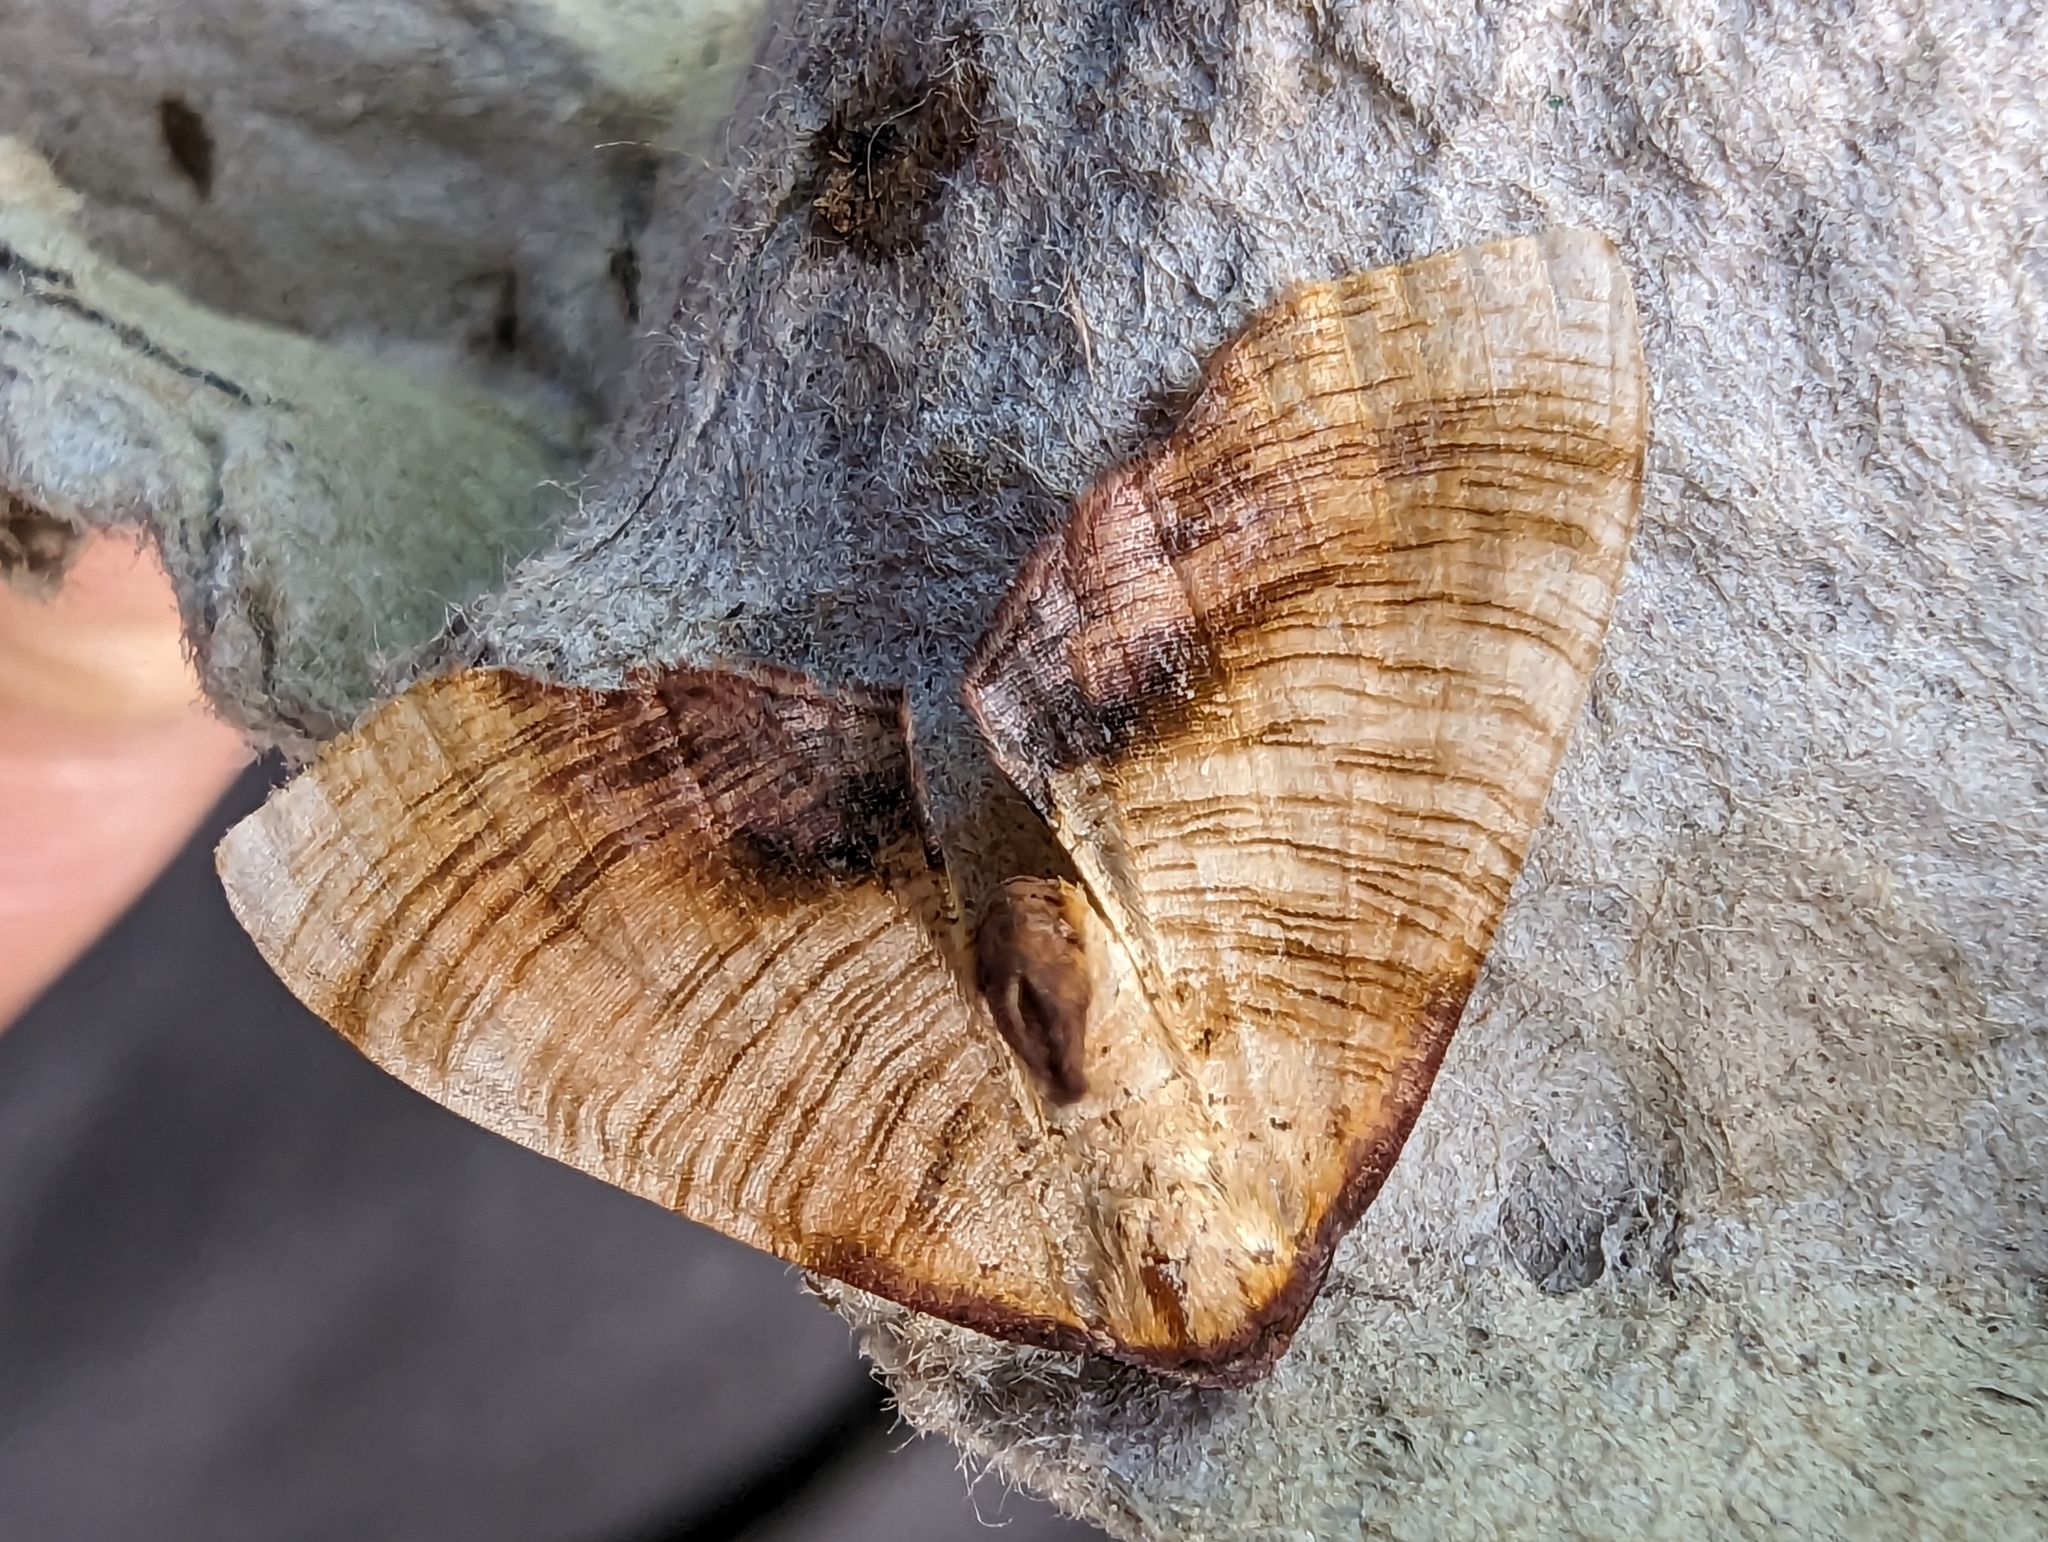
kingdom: Animalia
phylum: Arthropoda
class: Insecta
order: Lepidoptera
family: Geometridae
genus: Plagodis
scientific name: Plagodis dolabraria
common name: Scorched wing
